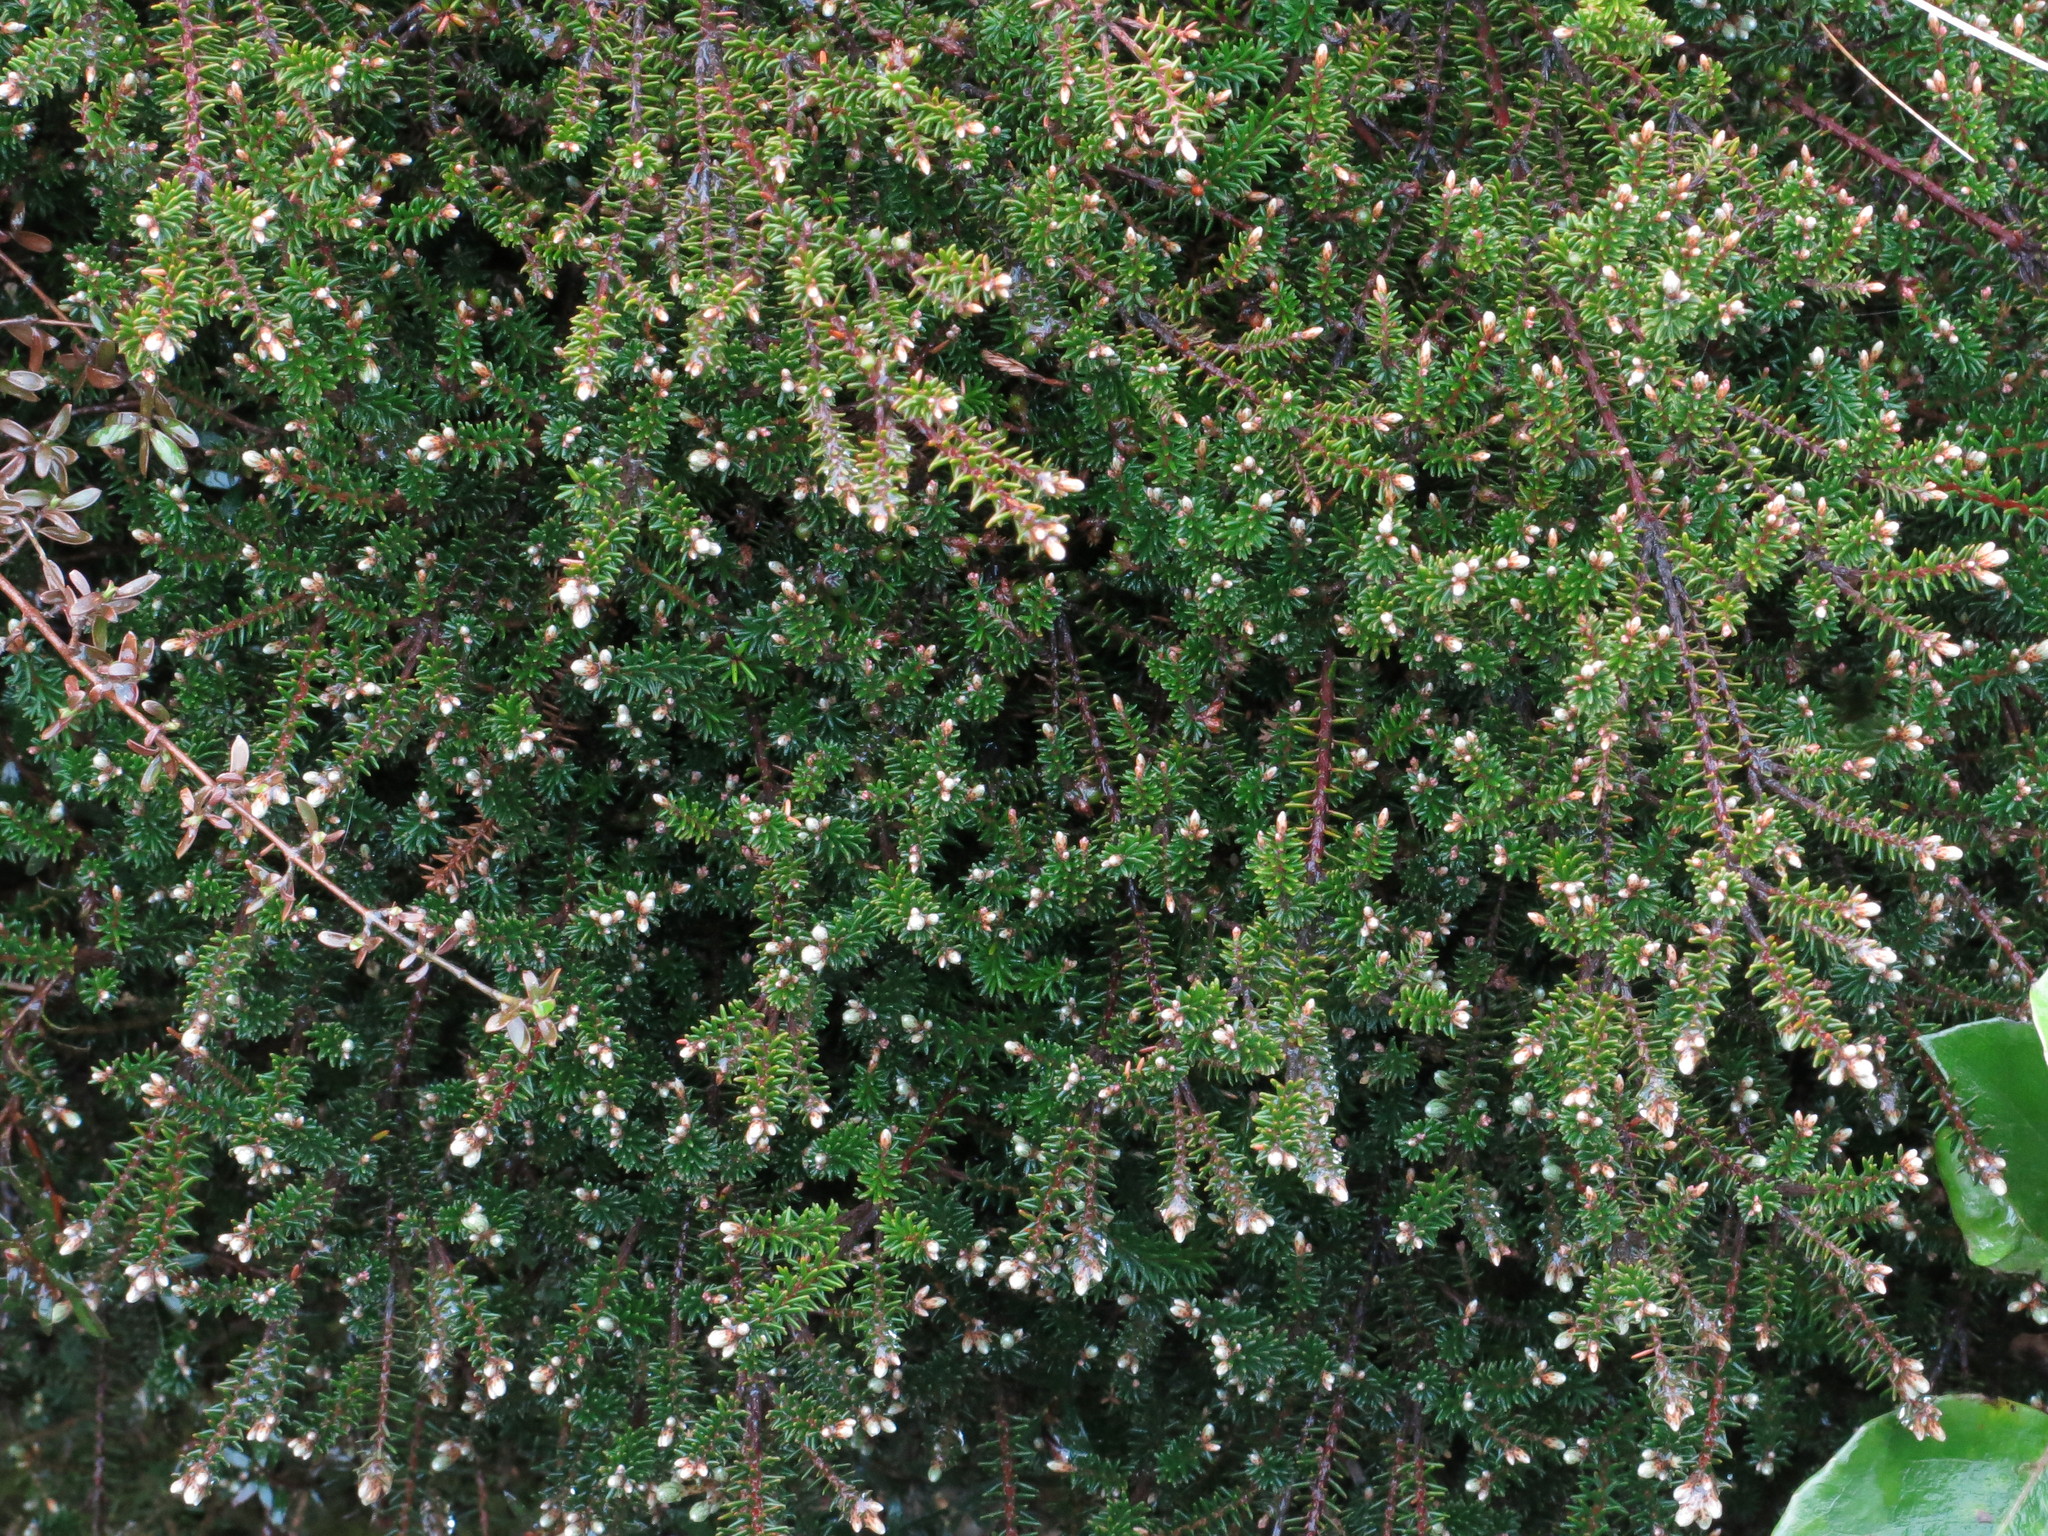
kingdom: Plantae
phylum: Tracheophyta
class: Magnoliopsida
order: Ericales
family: Ericaceae
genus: Androstoma
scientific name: Androstoma empetrifolia
